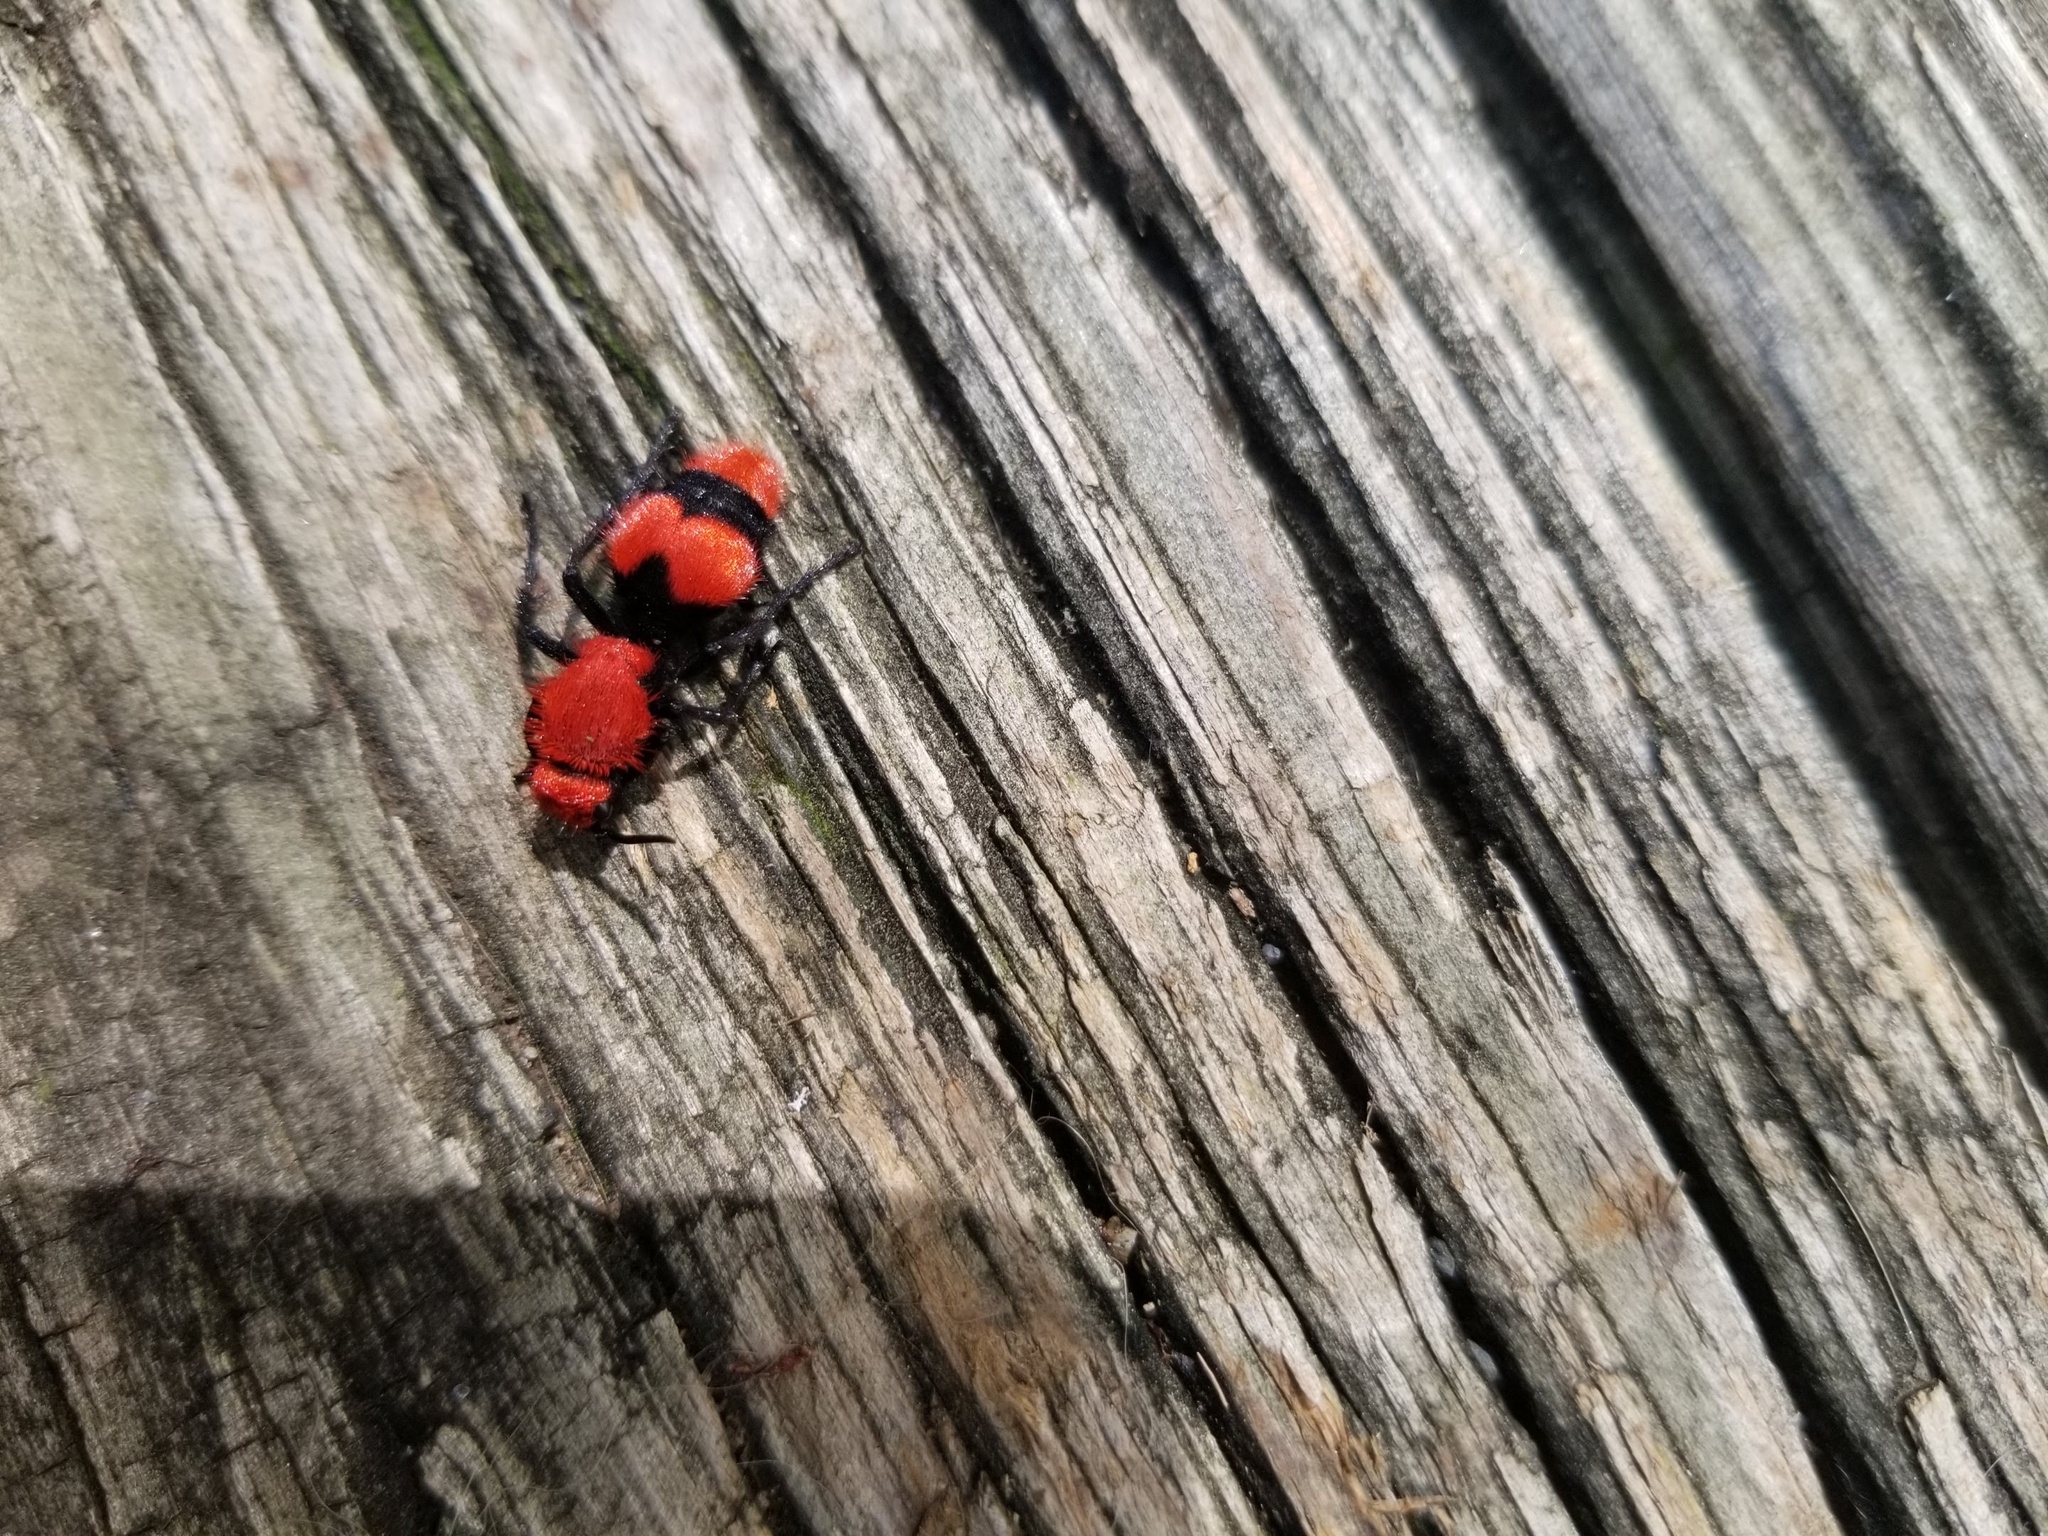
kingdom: Animalia
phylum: Arthropoda
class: Insecta
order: Hymenoptera
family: Mutillidae
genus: Dasymutilla
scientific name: Dasymutilla occidentalis
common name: Common eastern velvet ant
